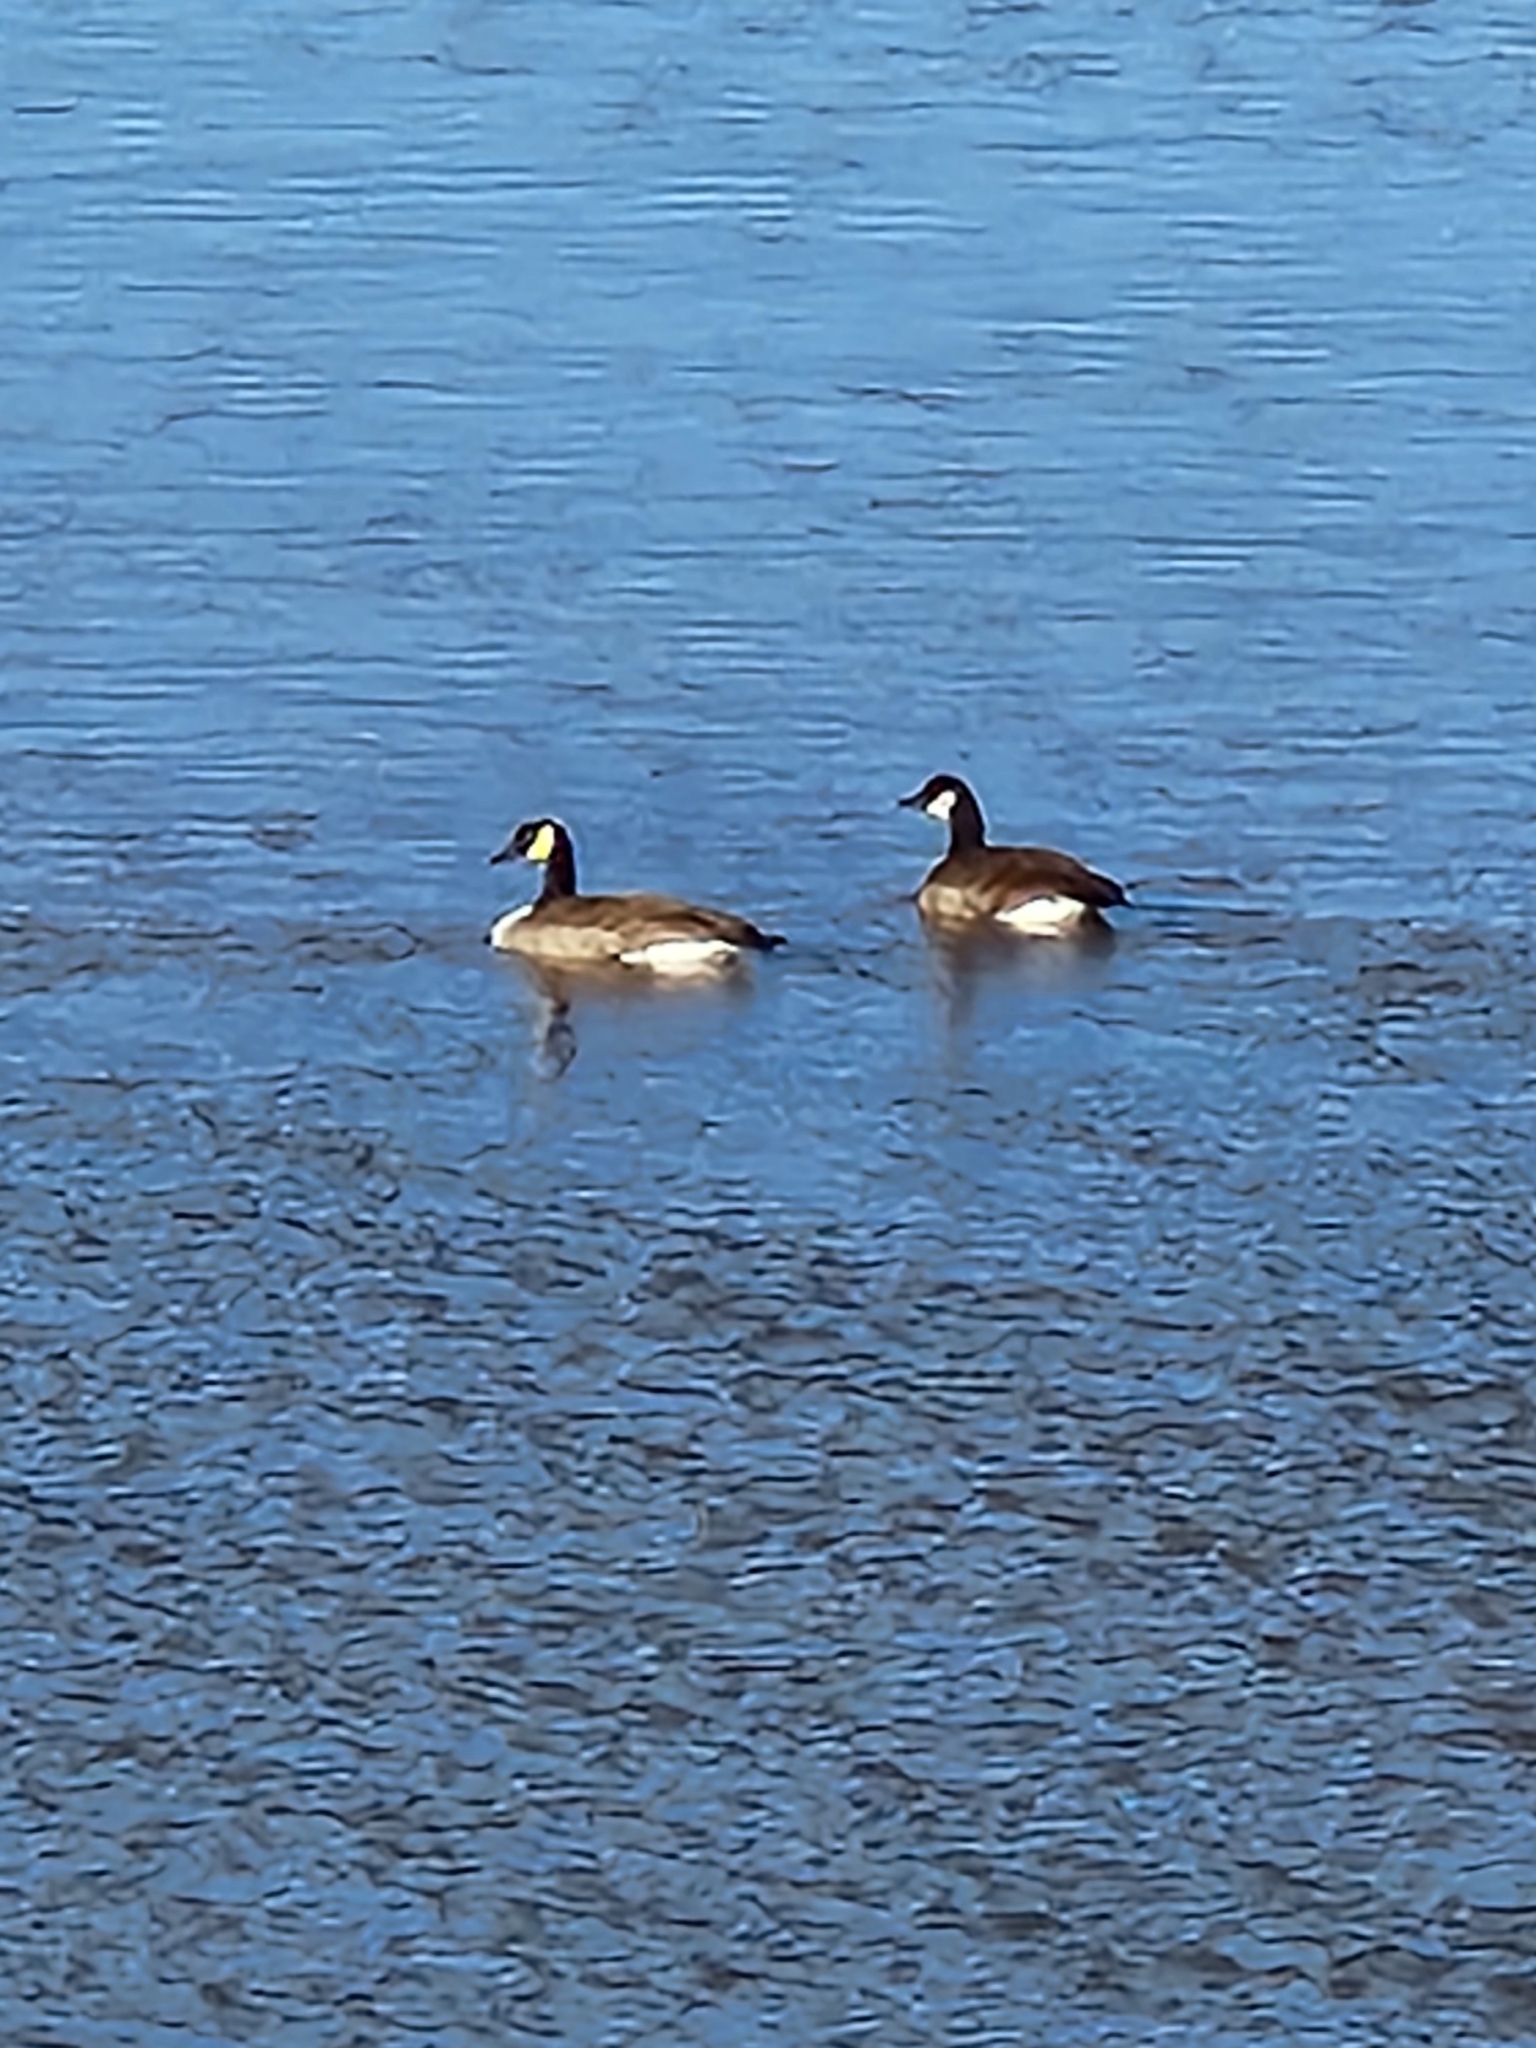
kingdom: Animalia
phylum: Chordata
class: Aves
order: Anseriformes
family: Anatidae
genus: Branta
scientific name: Branta canadensis
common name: Canada goose
